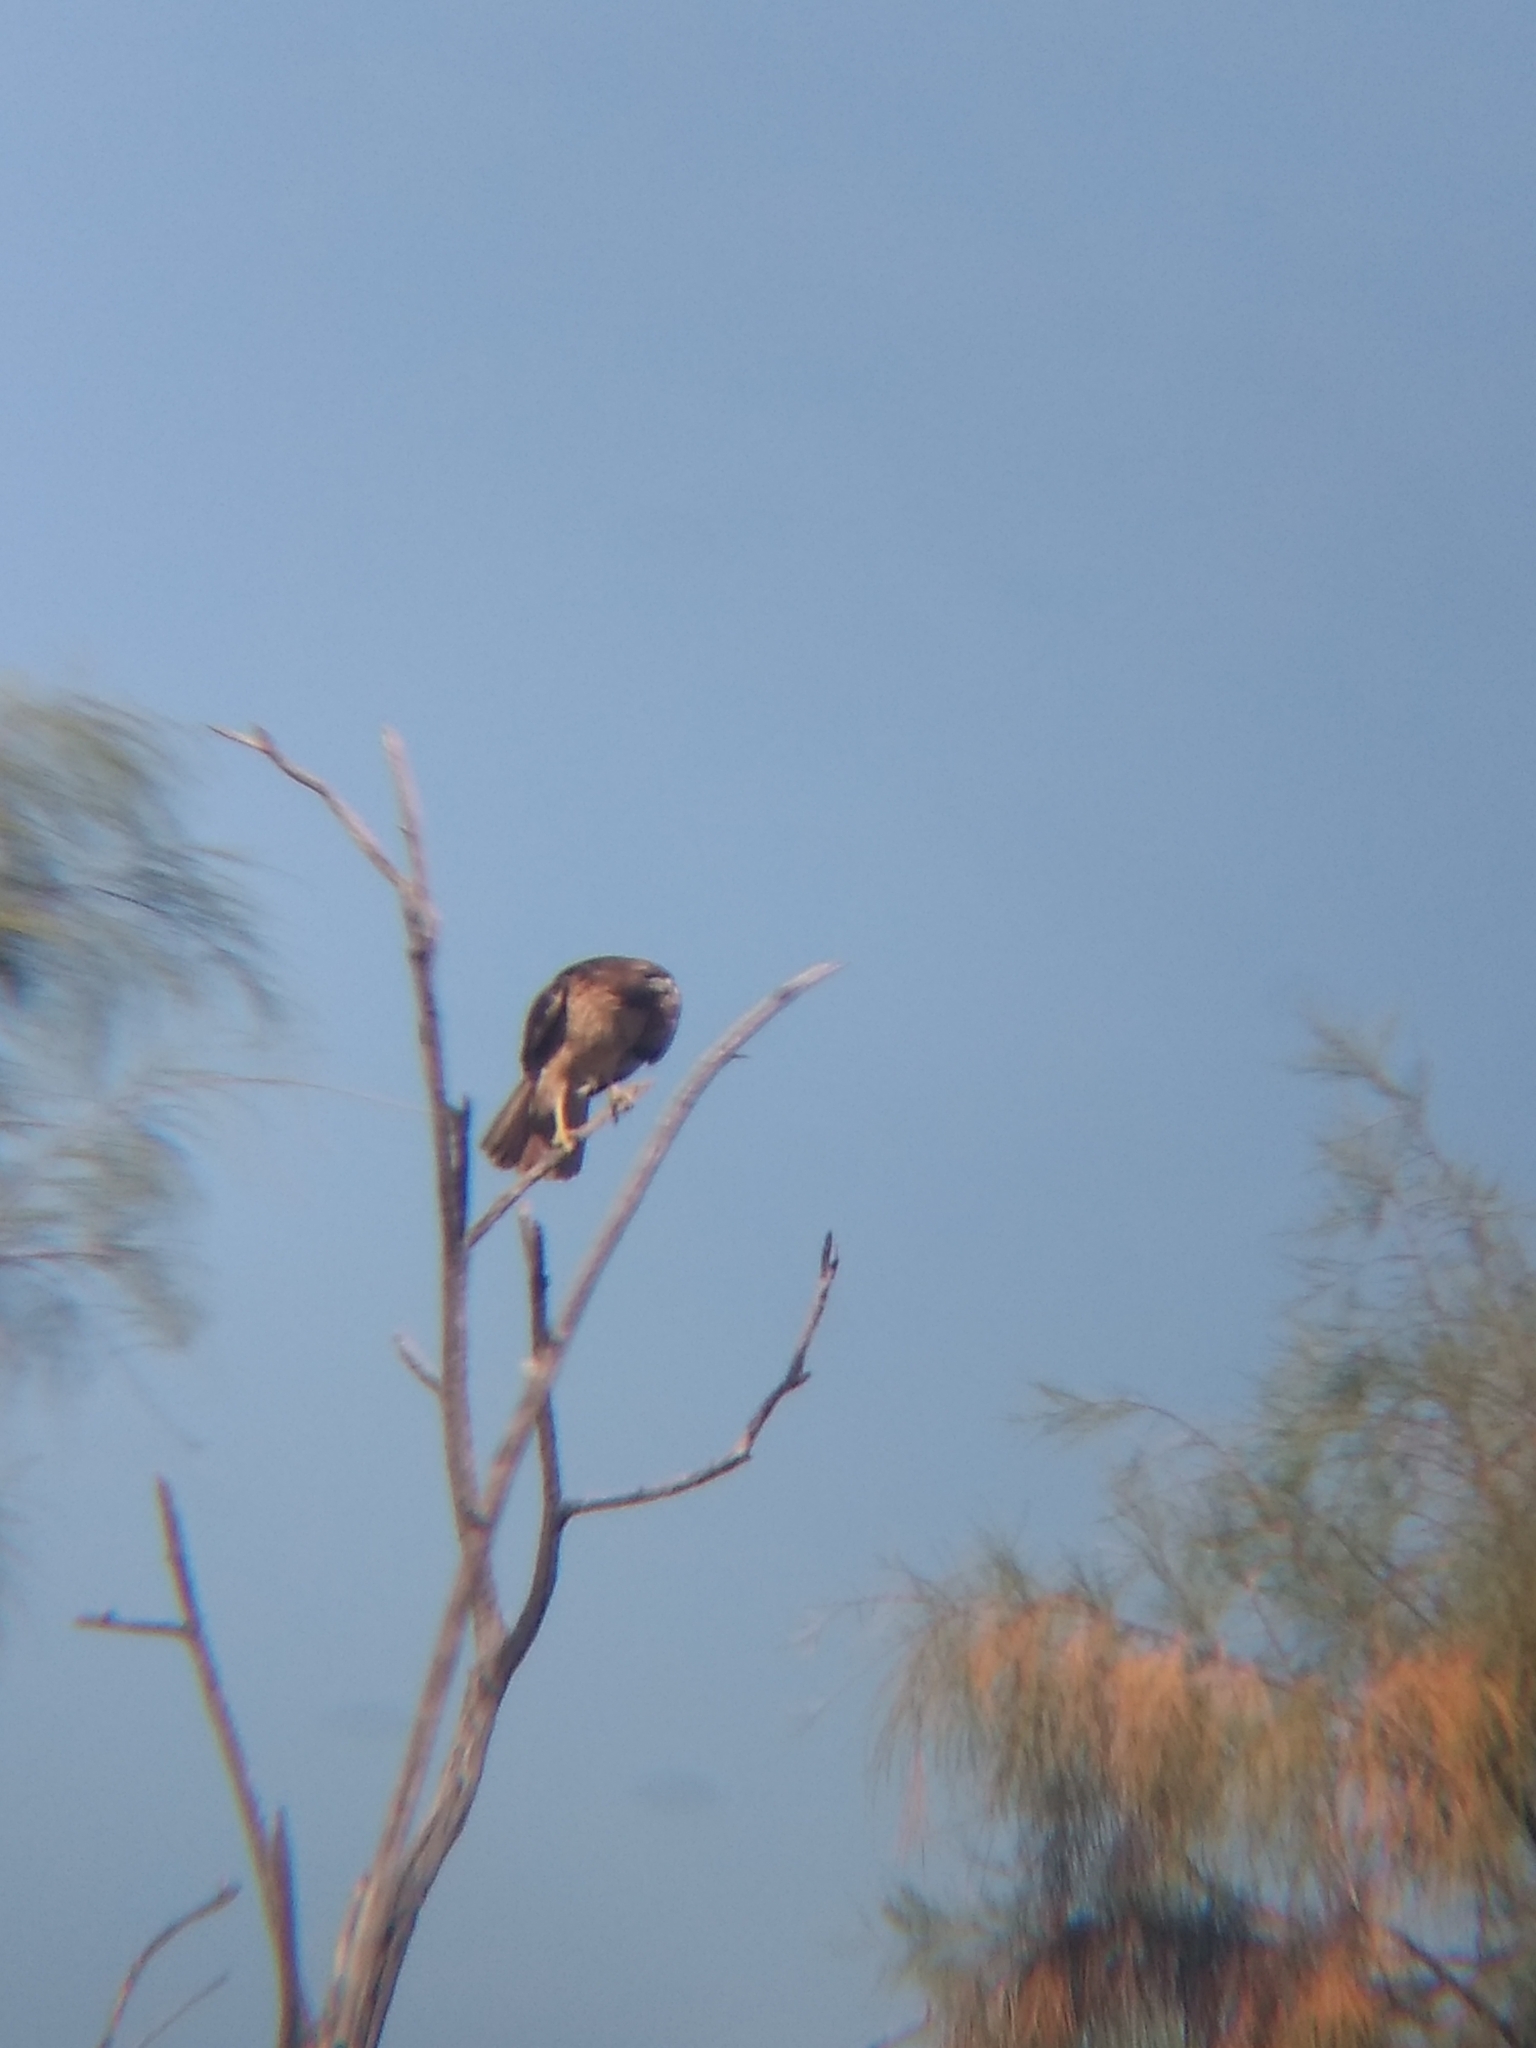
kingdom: Animalia
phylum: Chordata
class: Aves
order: Accipitriformes
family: Accipitridae
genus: Buteo
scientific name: Buteo jamaicensis
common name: Red-tailed hawk
